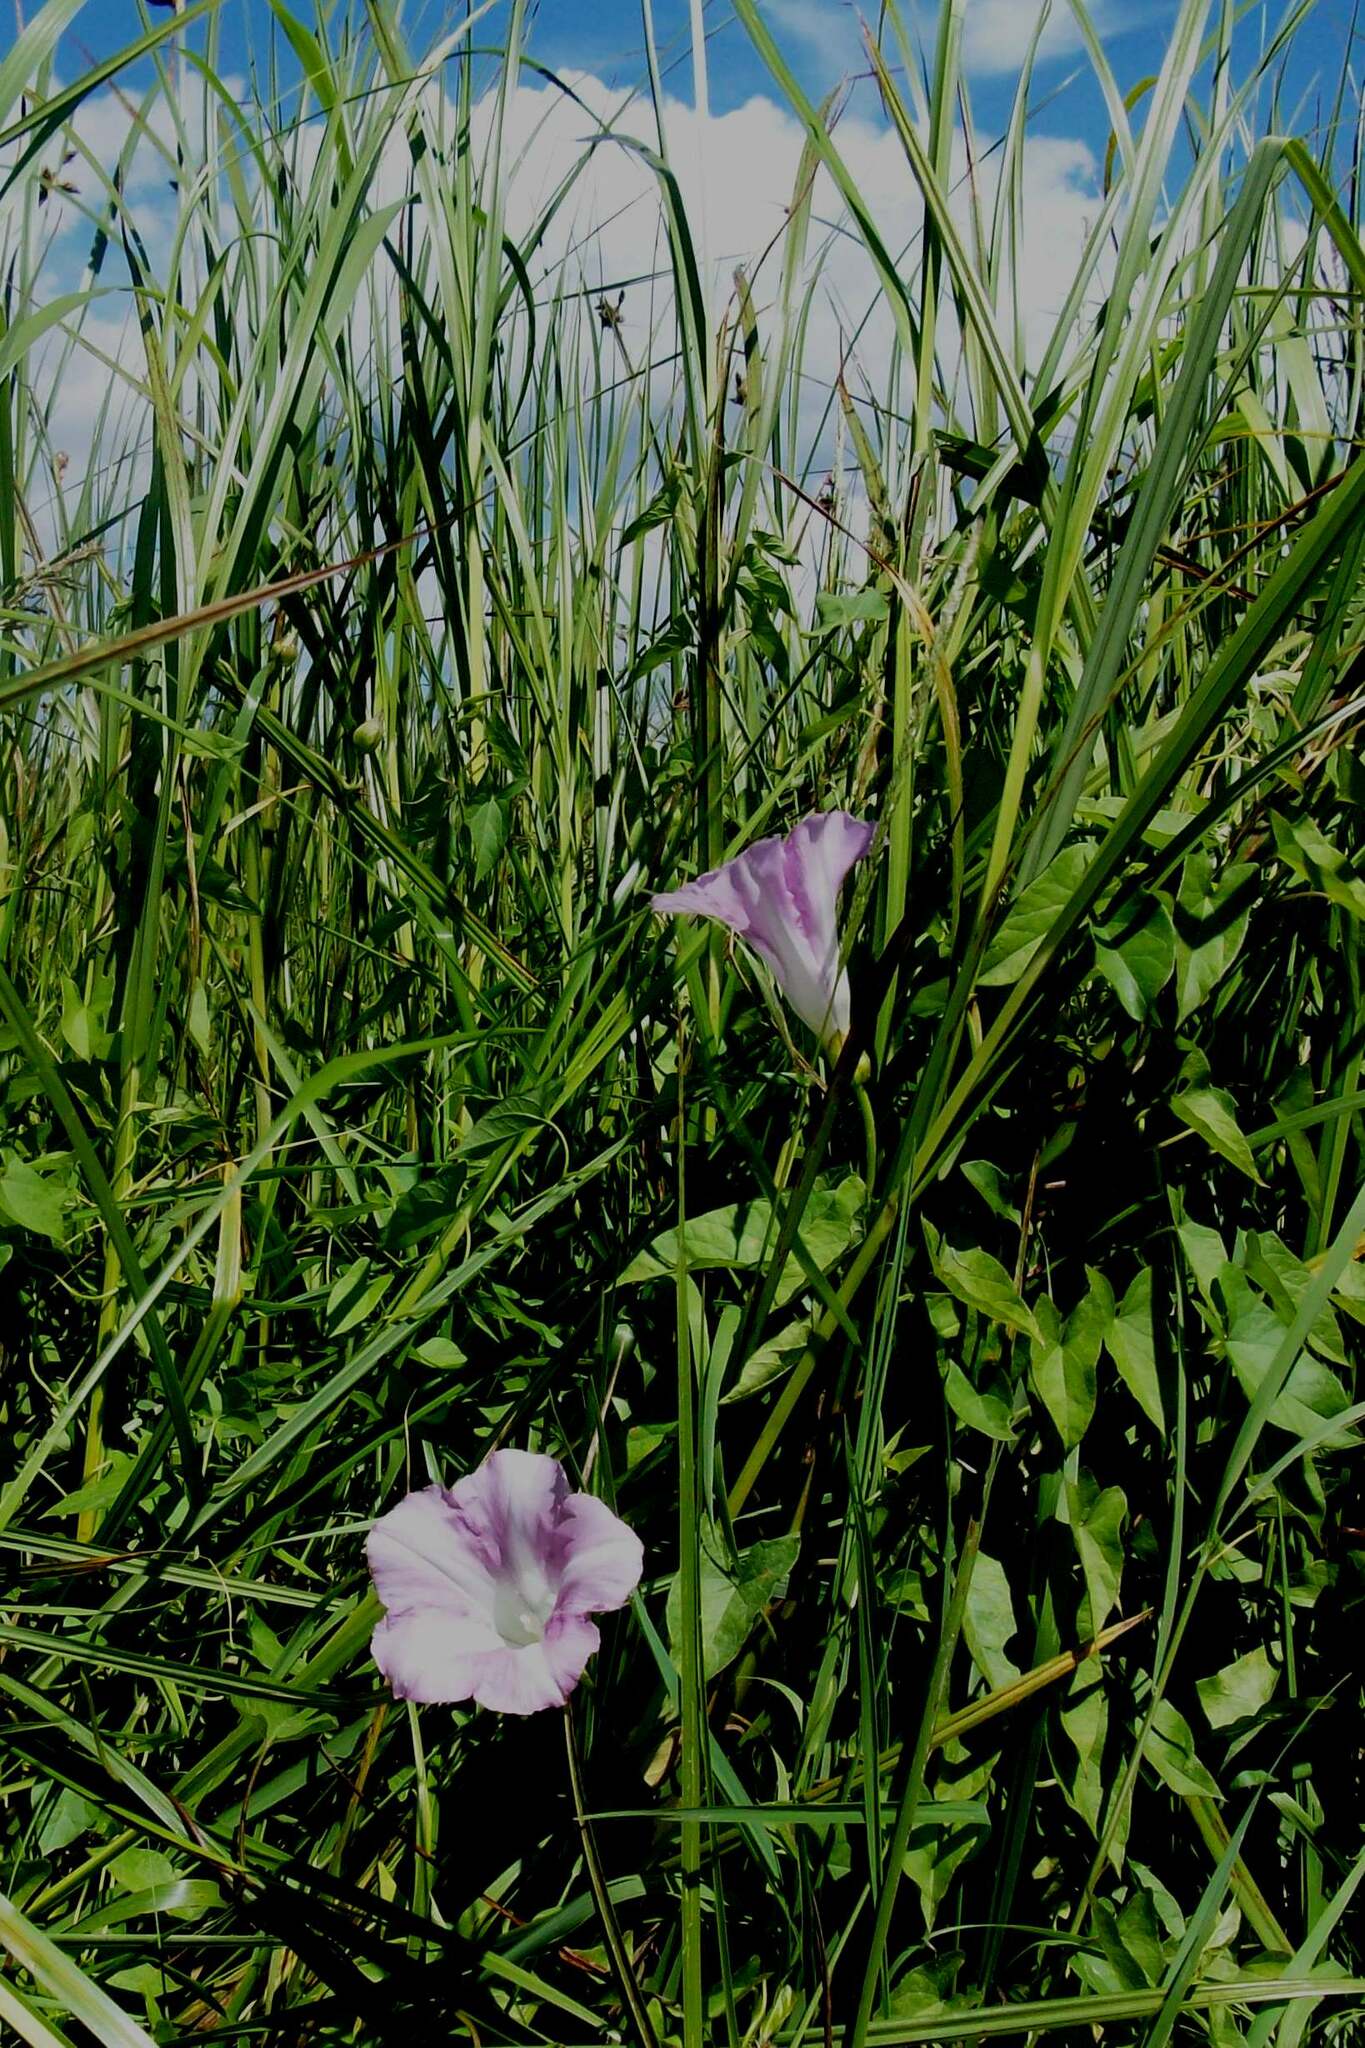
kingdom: Plantae
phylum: Tracheophyta
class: Magnoliopsida
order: Solanales
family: Convolvulaceae
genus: Calystegia
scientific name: Calystegia sepium
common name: Hedge bindweed
